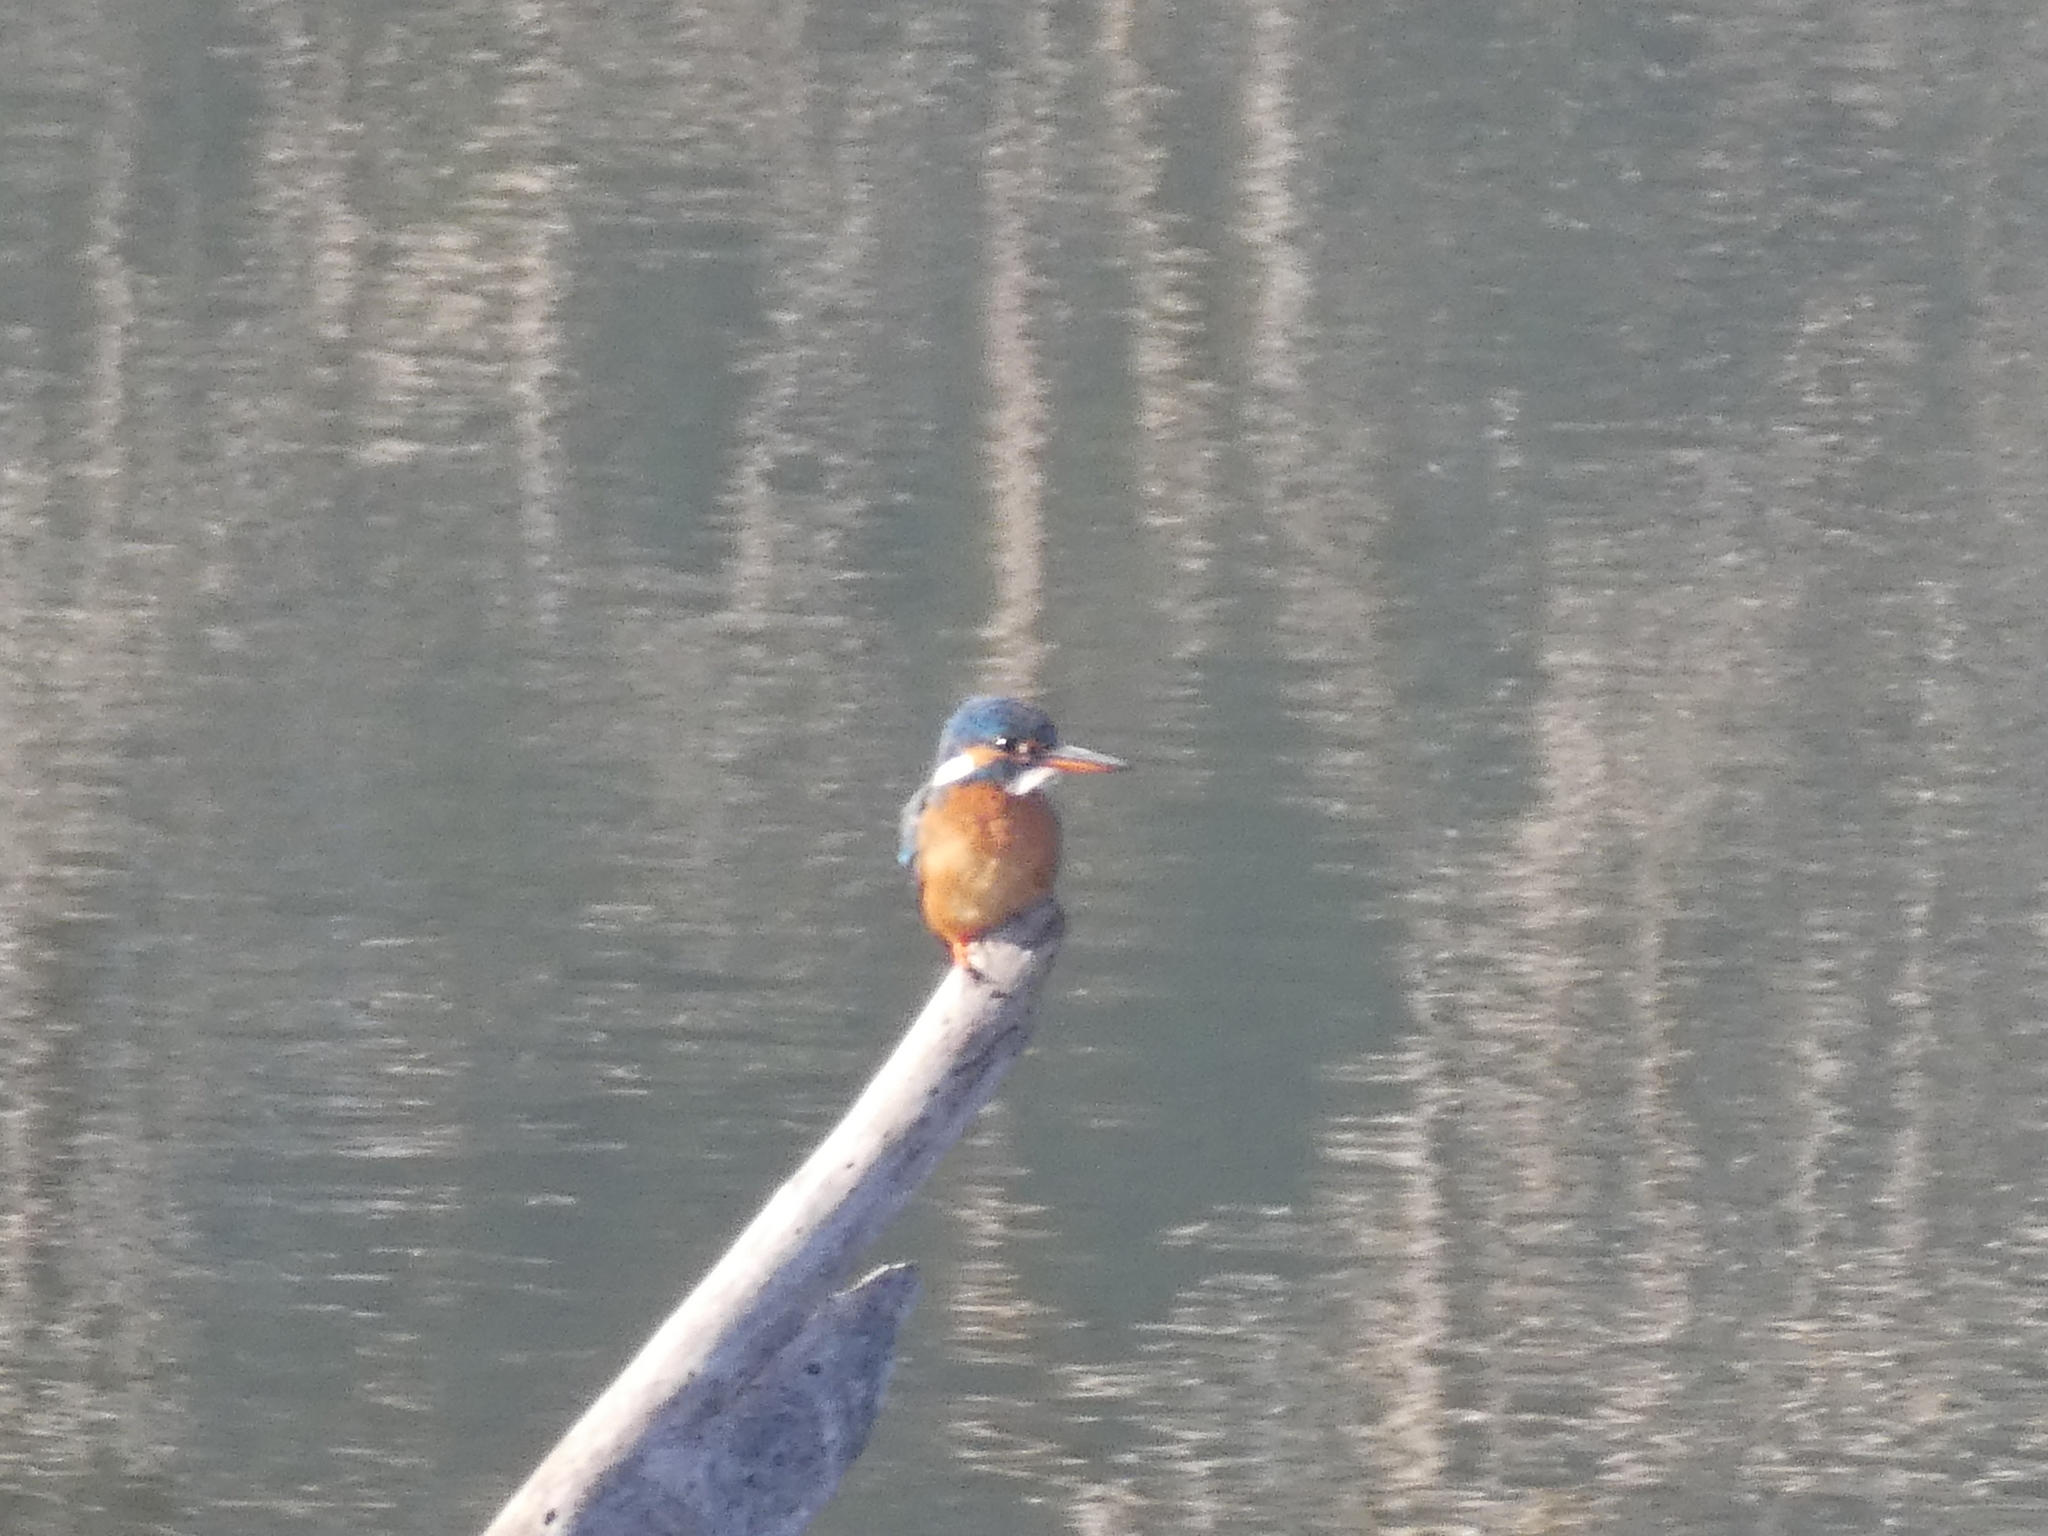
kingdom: Animalia
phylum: Chordata
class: Aves
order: Coraciiformes
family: Alcedinidae
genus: Alcedo
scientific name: Alcedo atthis
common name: Common kingfisher
